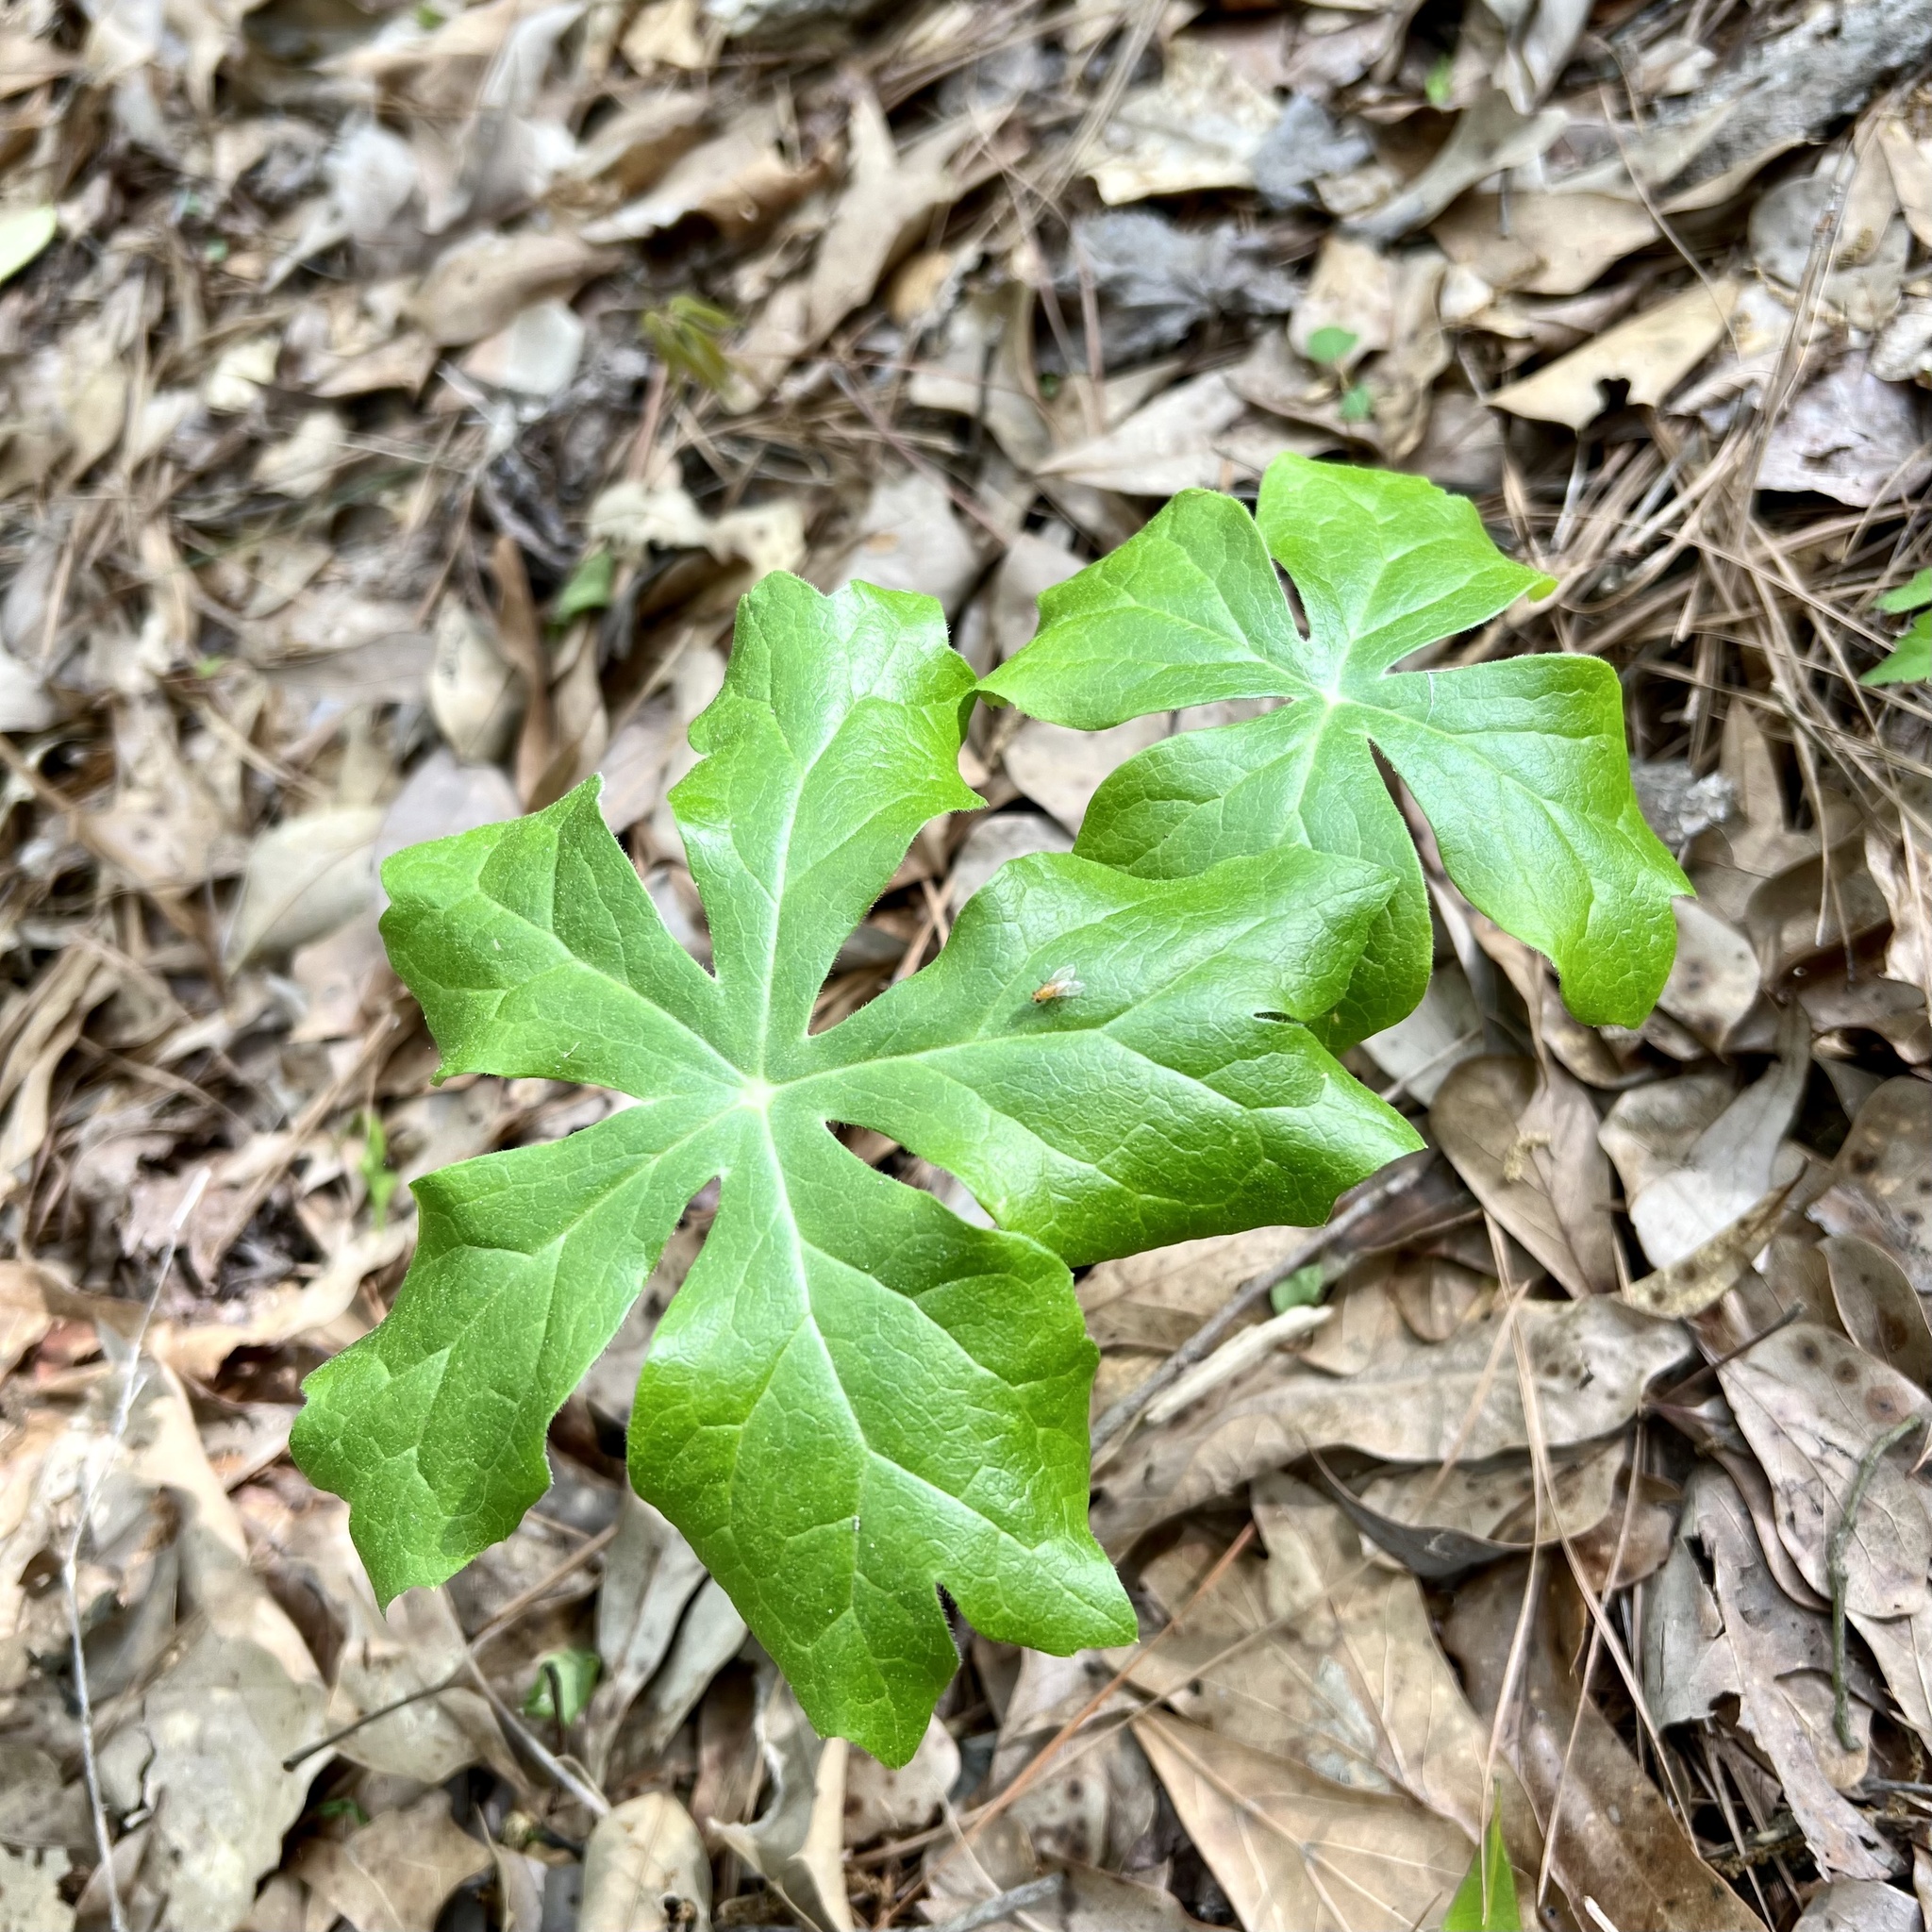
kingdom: Plantae
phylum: Tracheophyta
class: Magnoliopsida
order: Ranunculales
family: Berberidaceae
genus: Podophyllum
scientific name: Podophyllum peltatum
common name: Wild mandrake
